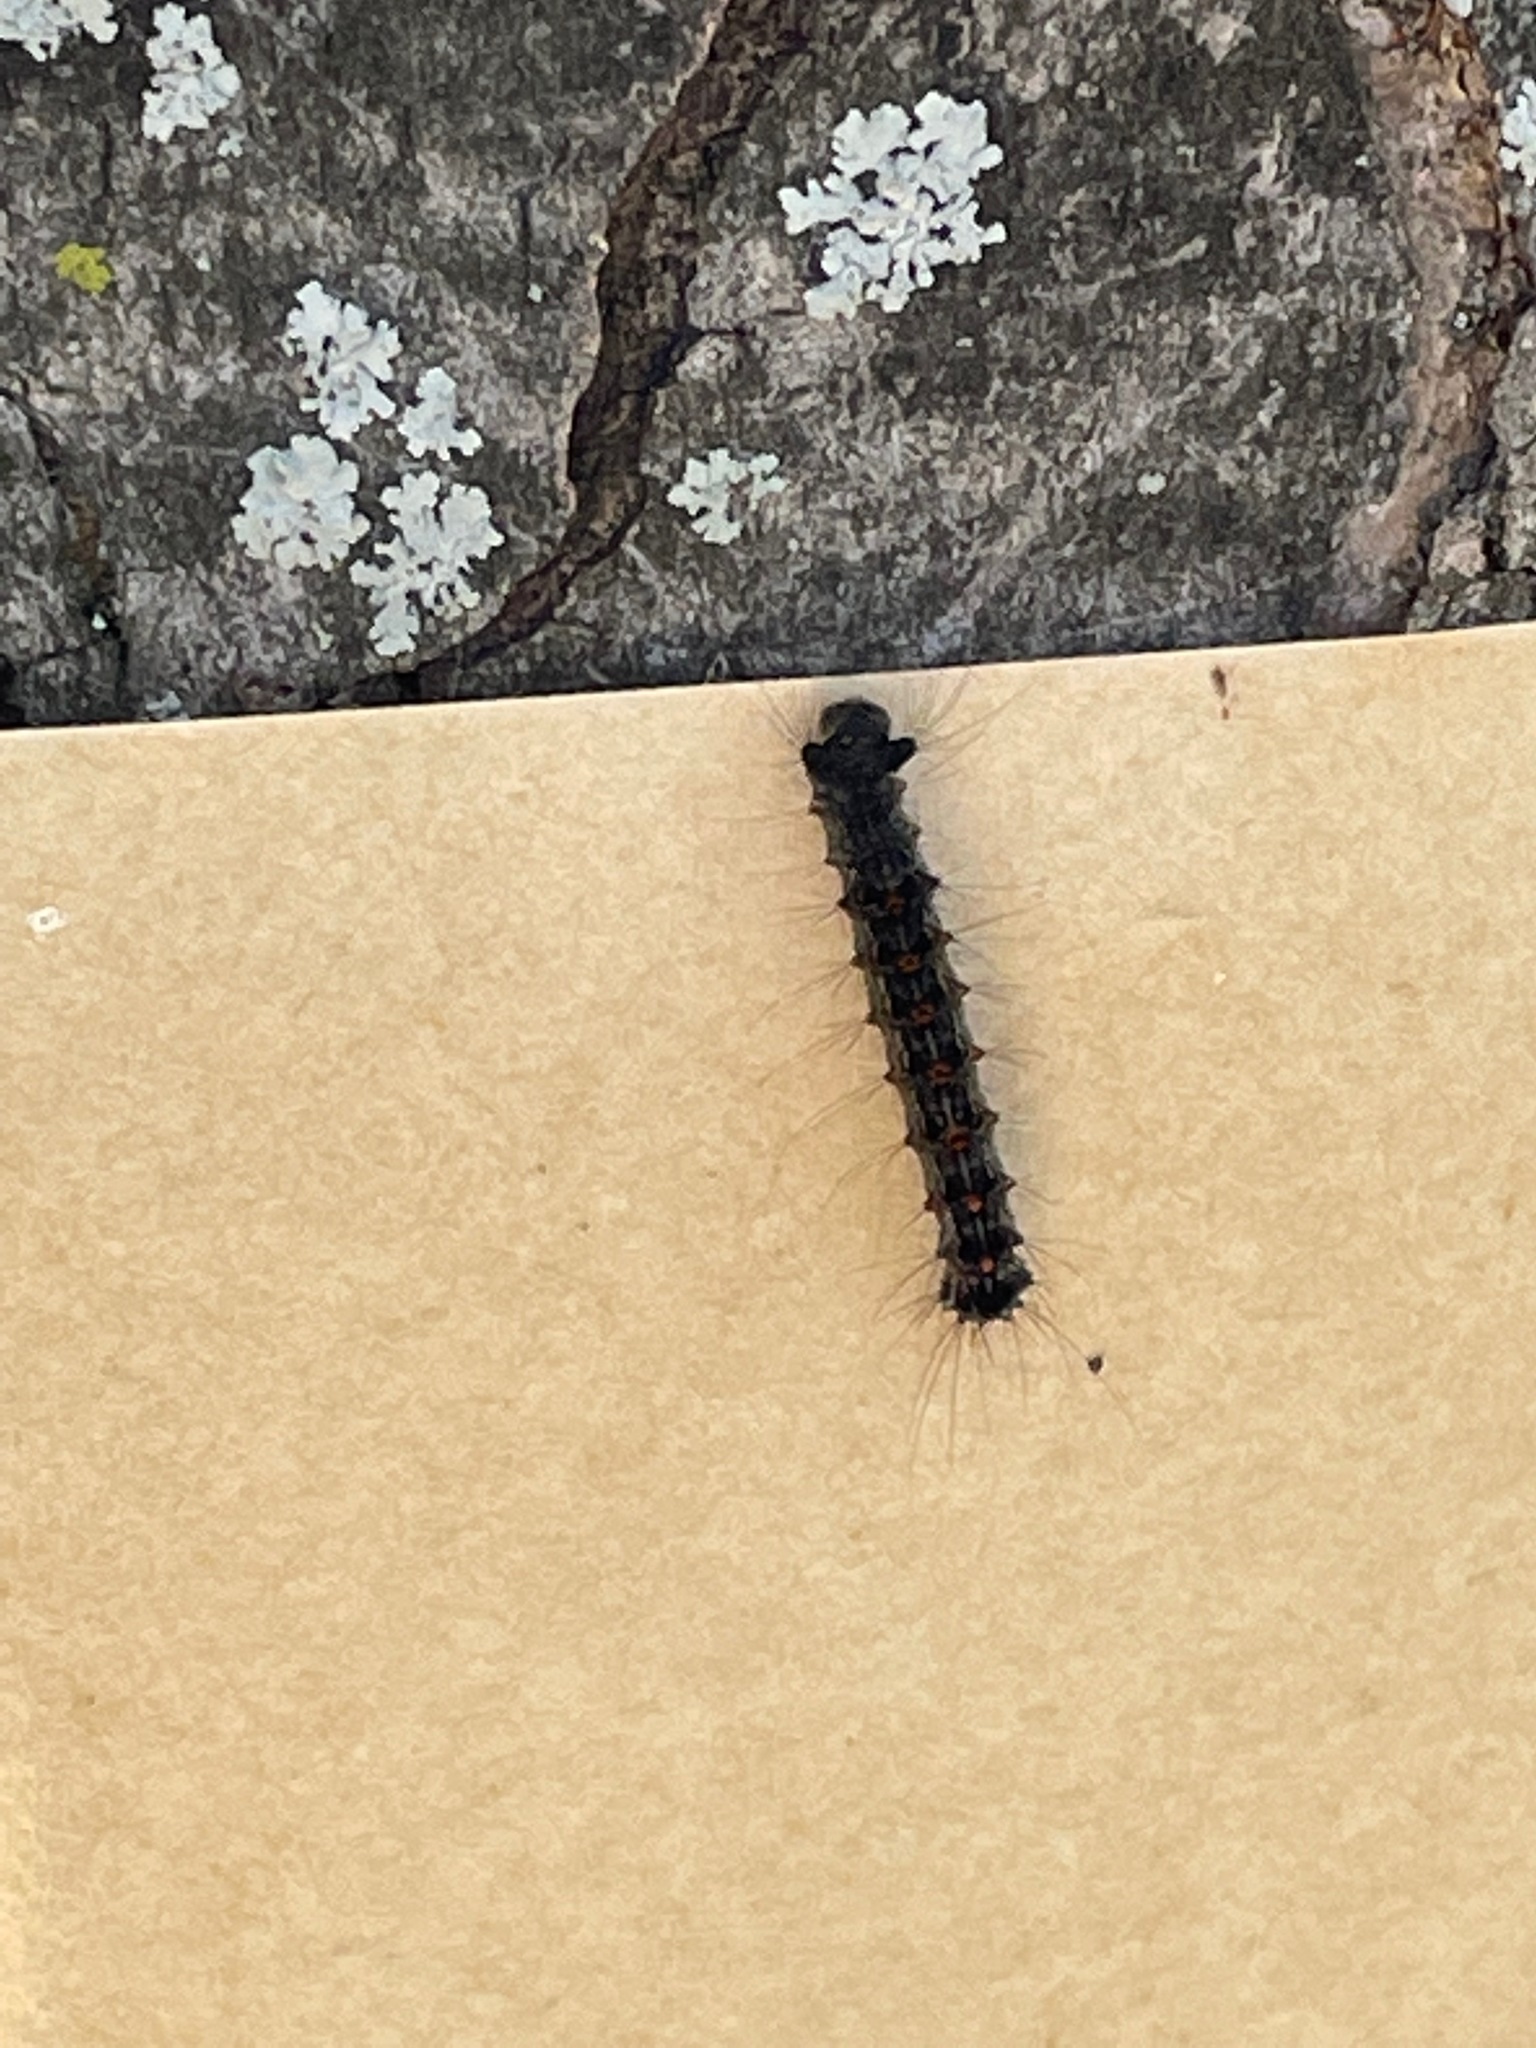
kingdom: Animalia
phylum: Arthropoda
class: Insecta
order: Lepidoptera
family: Erebidae
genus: Lymantria
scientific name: Lymantria dispar
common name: Gypsy moth
